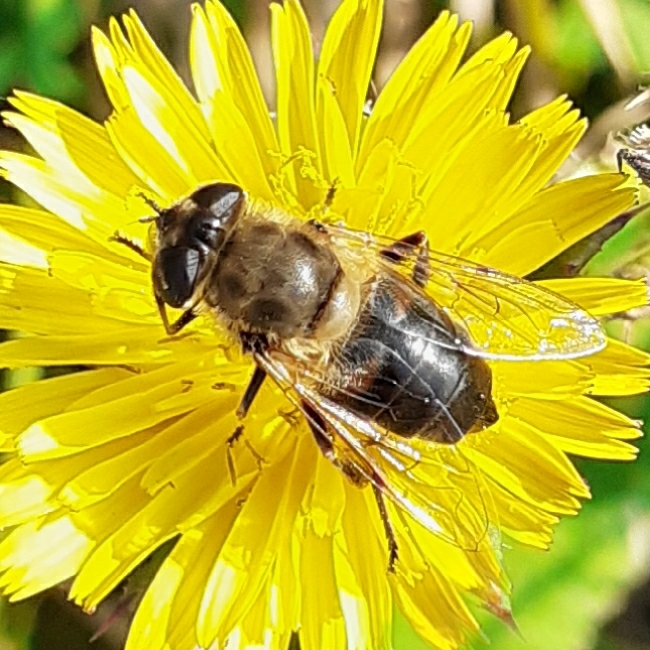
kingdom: Animalia
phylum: Arthropoda
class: Insecta
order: Diptera
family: Syrphidae
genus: Eristalis
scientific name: Eristalis tenax
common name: Drone fly
